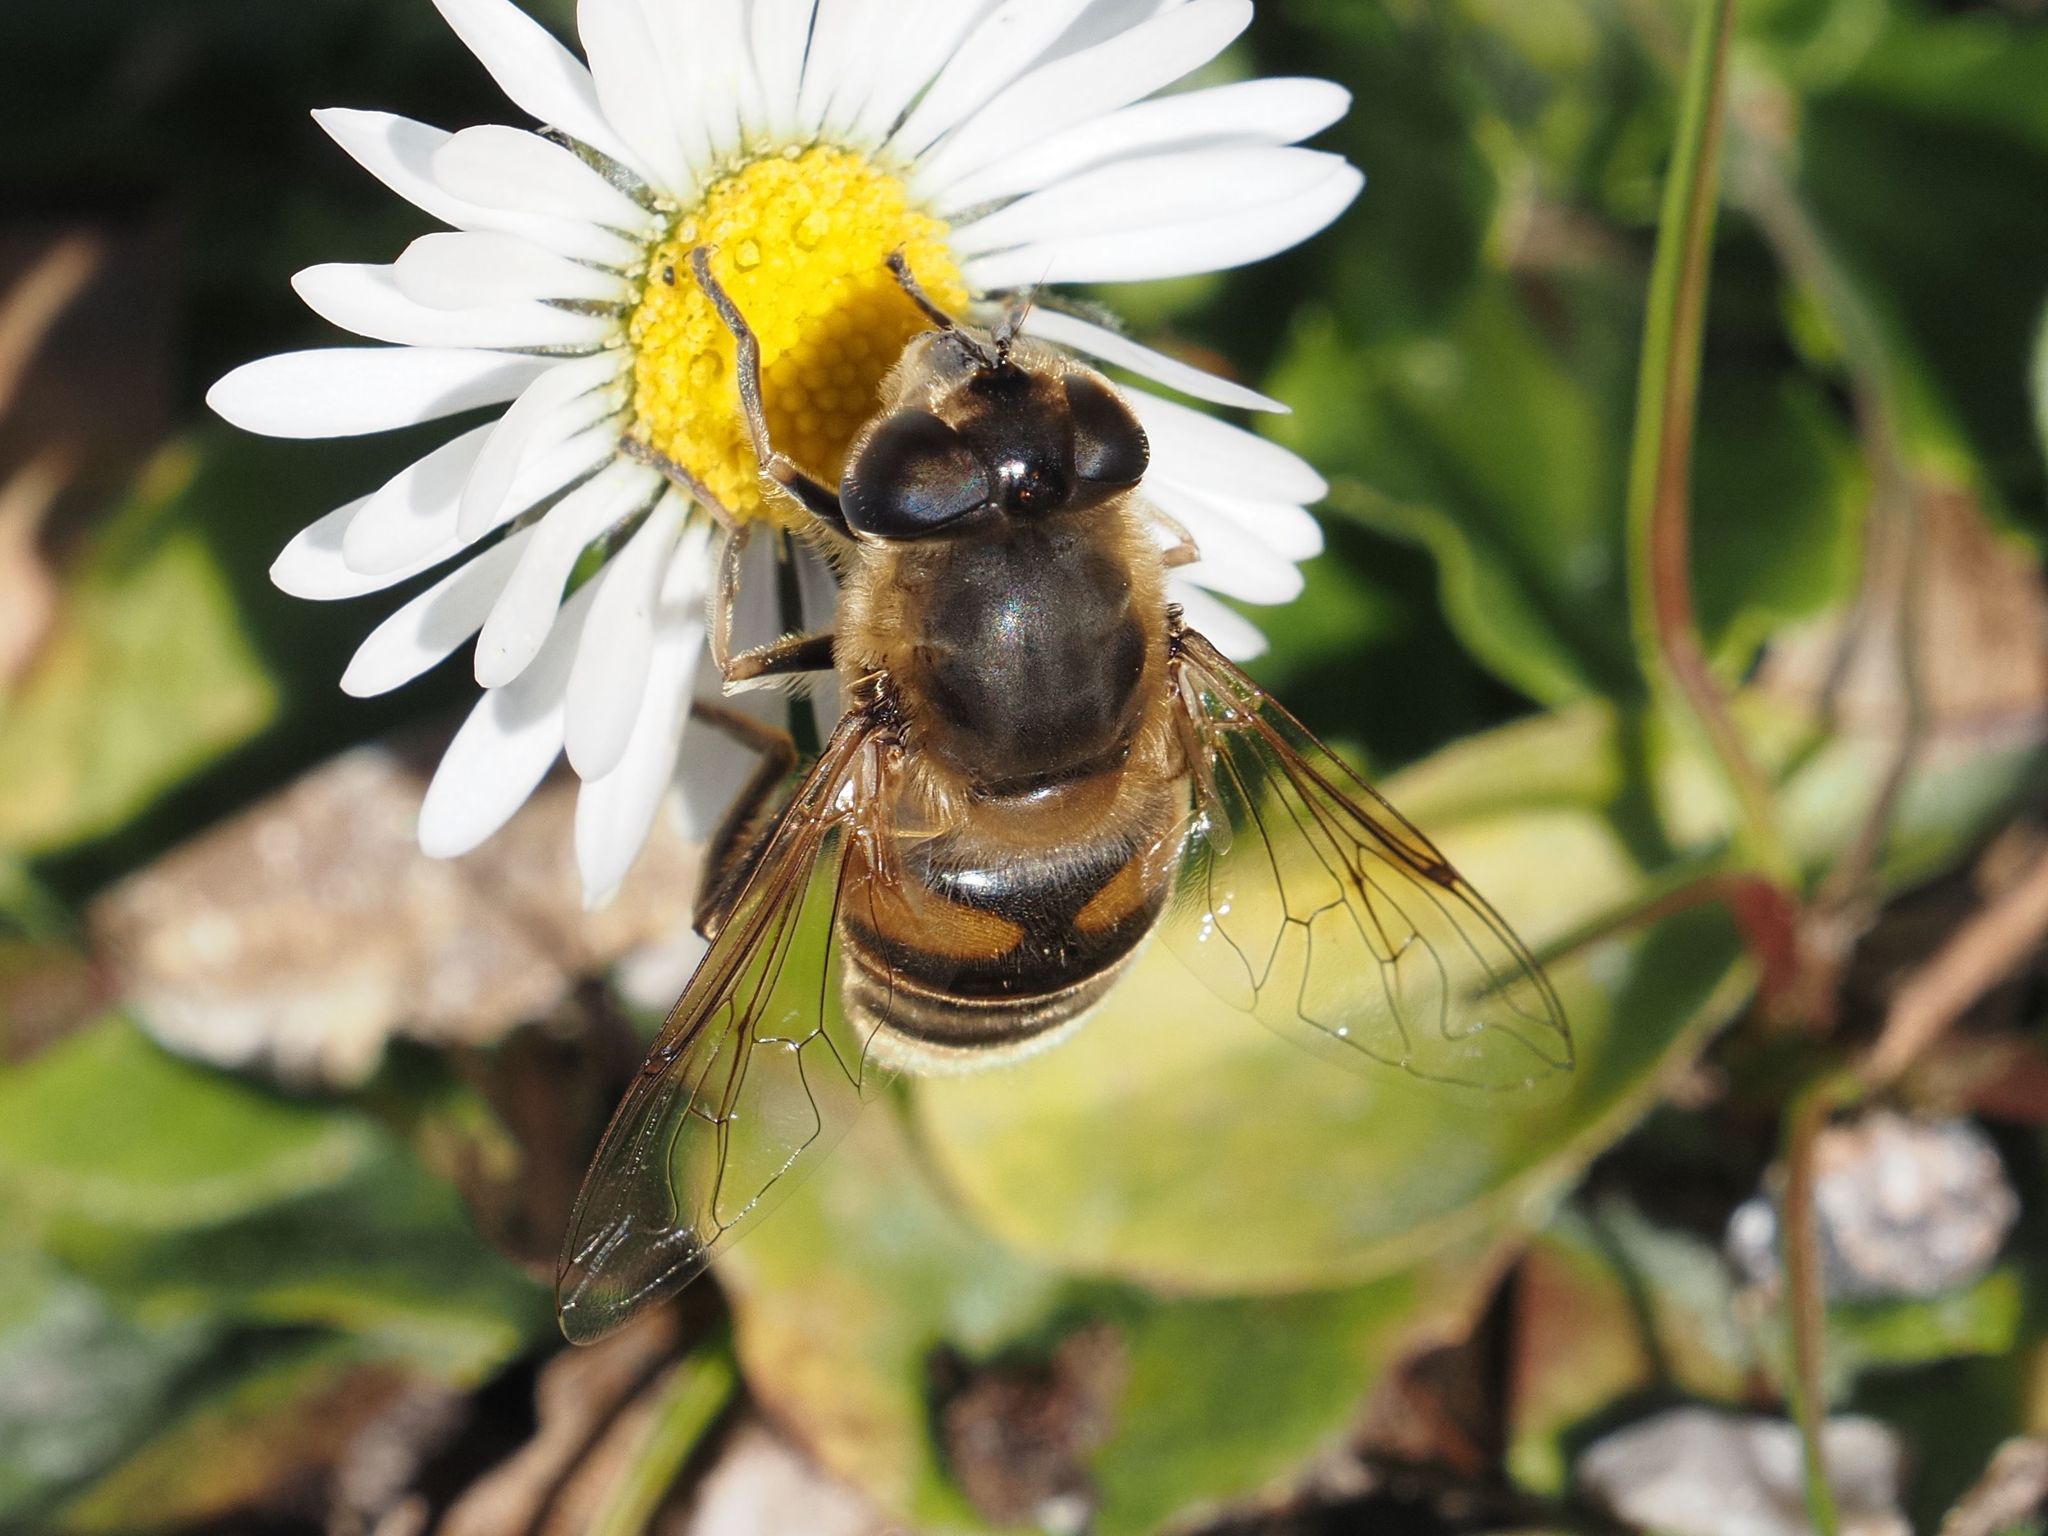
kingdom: Animalia
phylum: Arthropoda
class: Insecta
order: Diptera
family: Syrphidae
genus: Eristalis
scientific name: Eristalis tenax
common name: Drone fly
